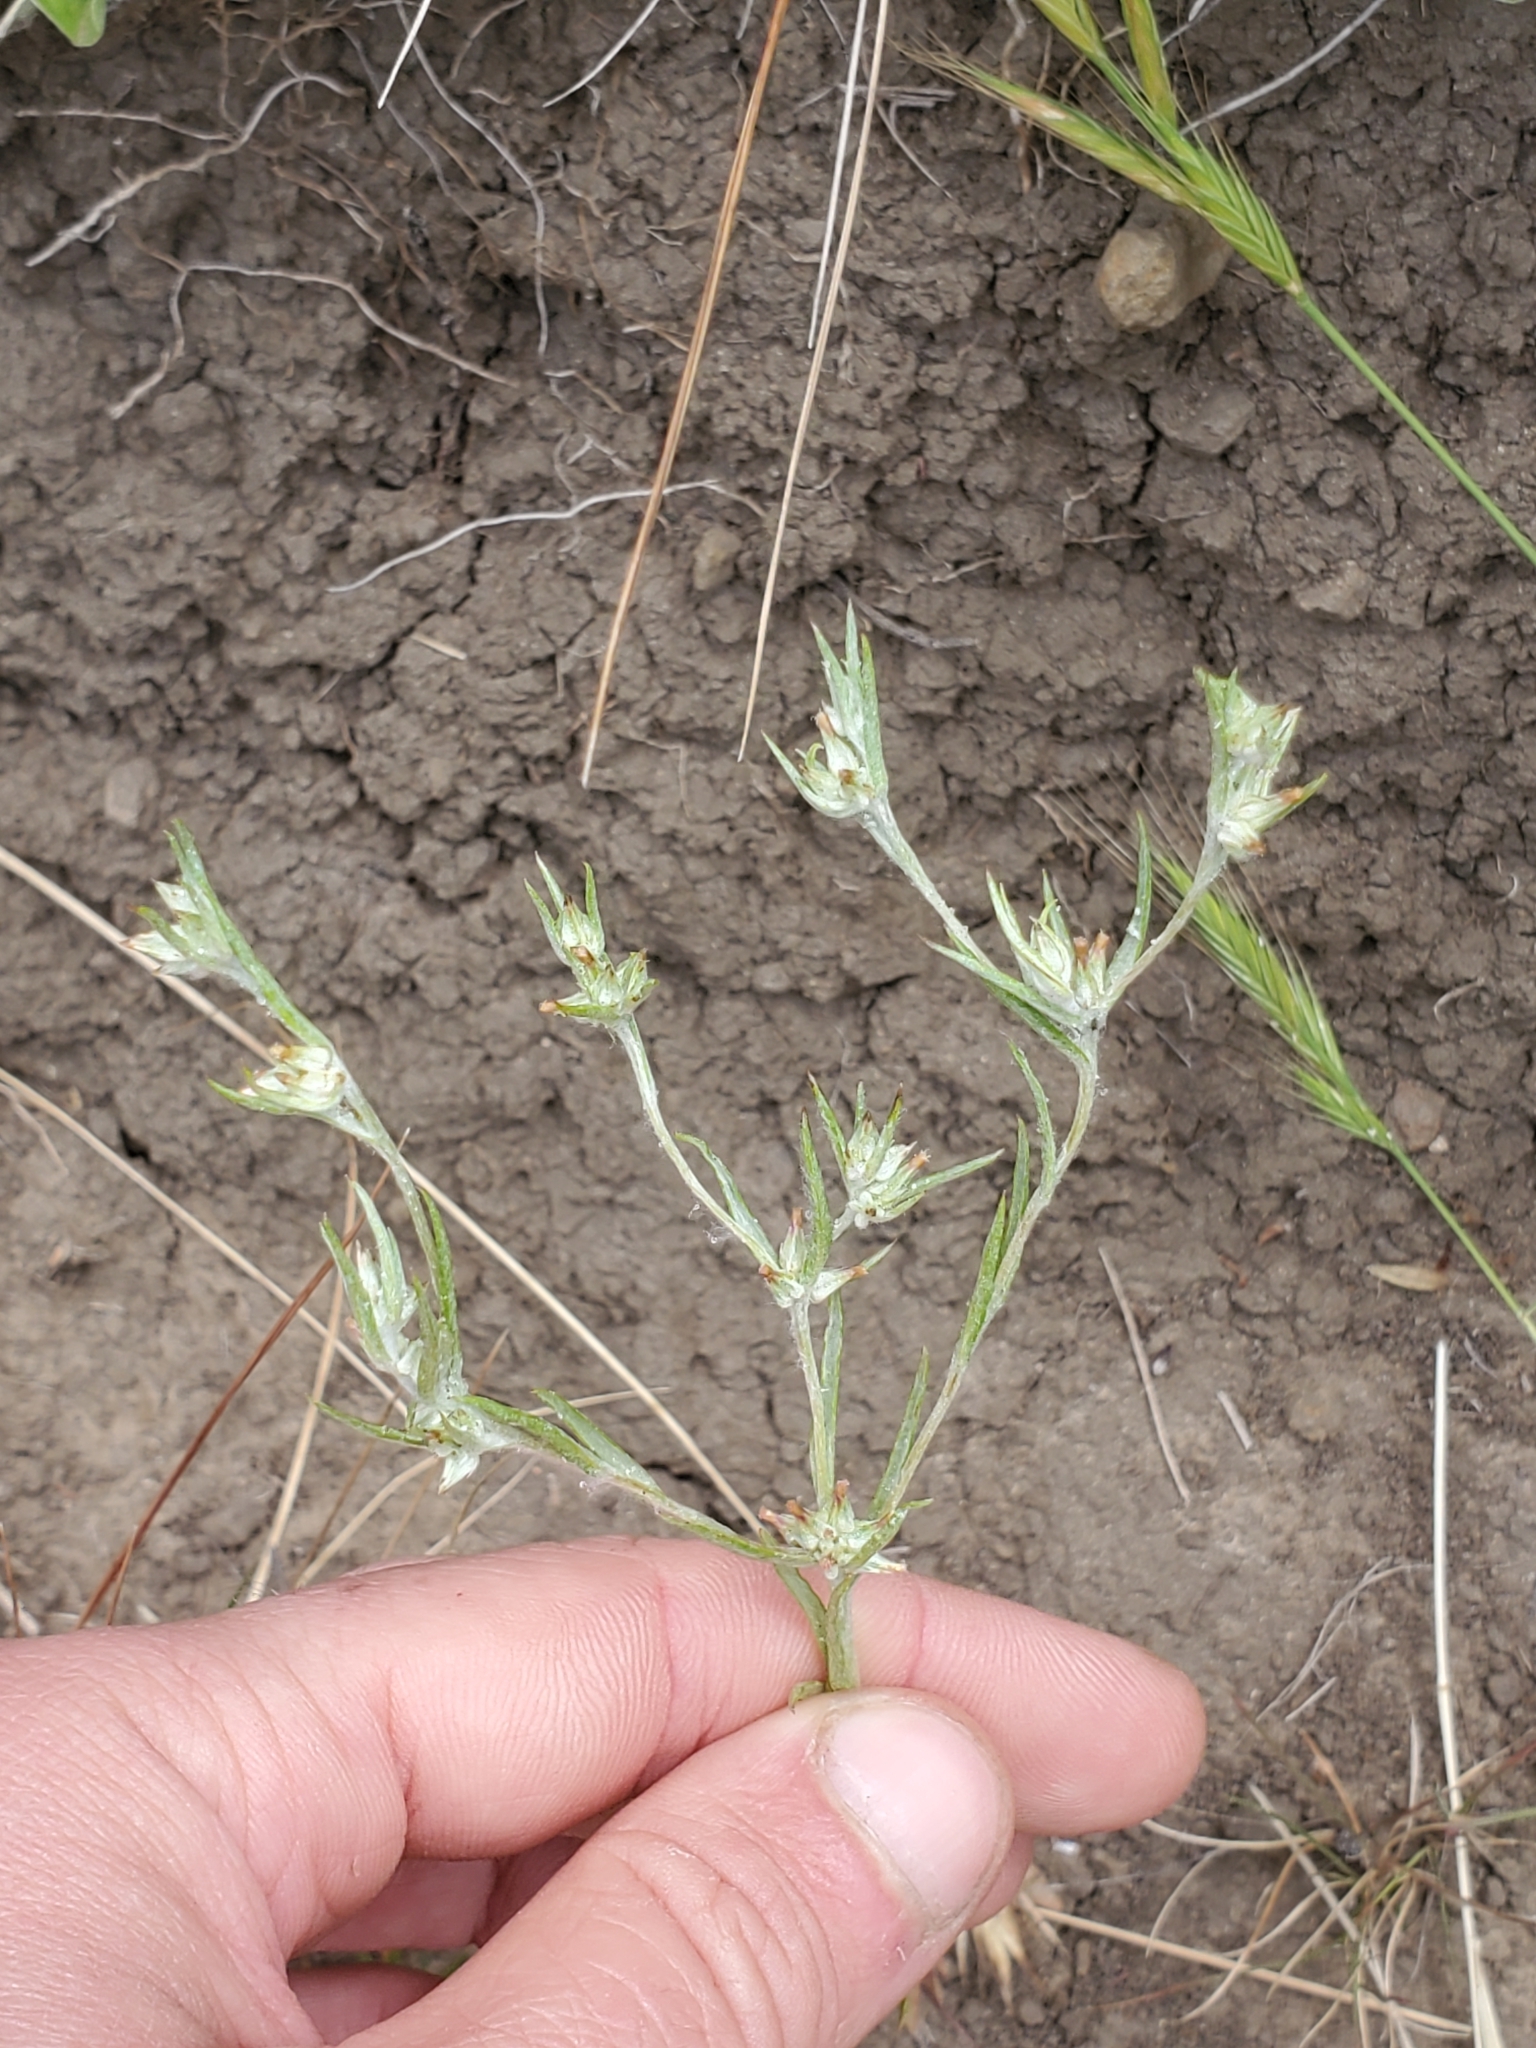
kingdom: Plantae
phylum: Tracheophyta
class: Magnoliopsida
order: Asterales
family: Asteraceae
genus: Logfia
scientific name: Logfia gallica
